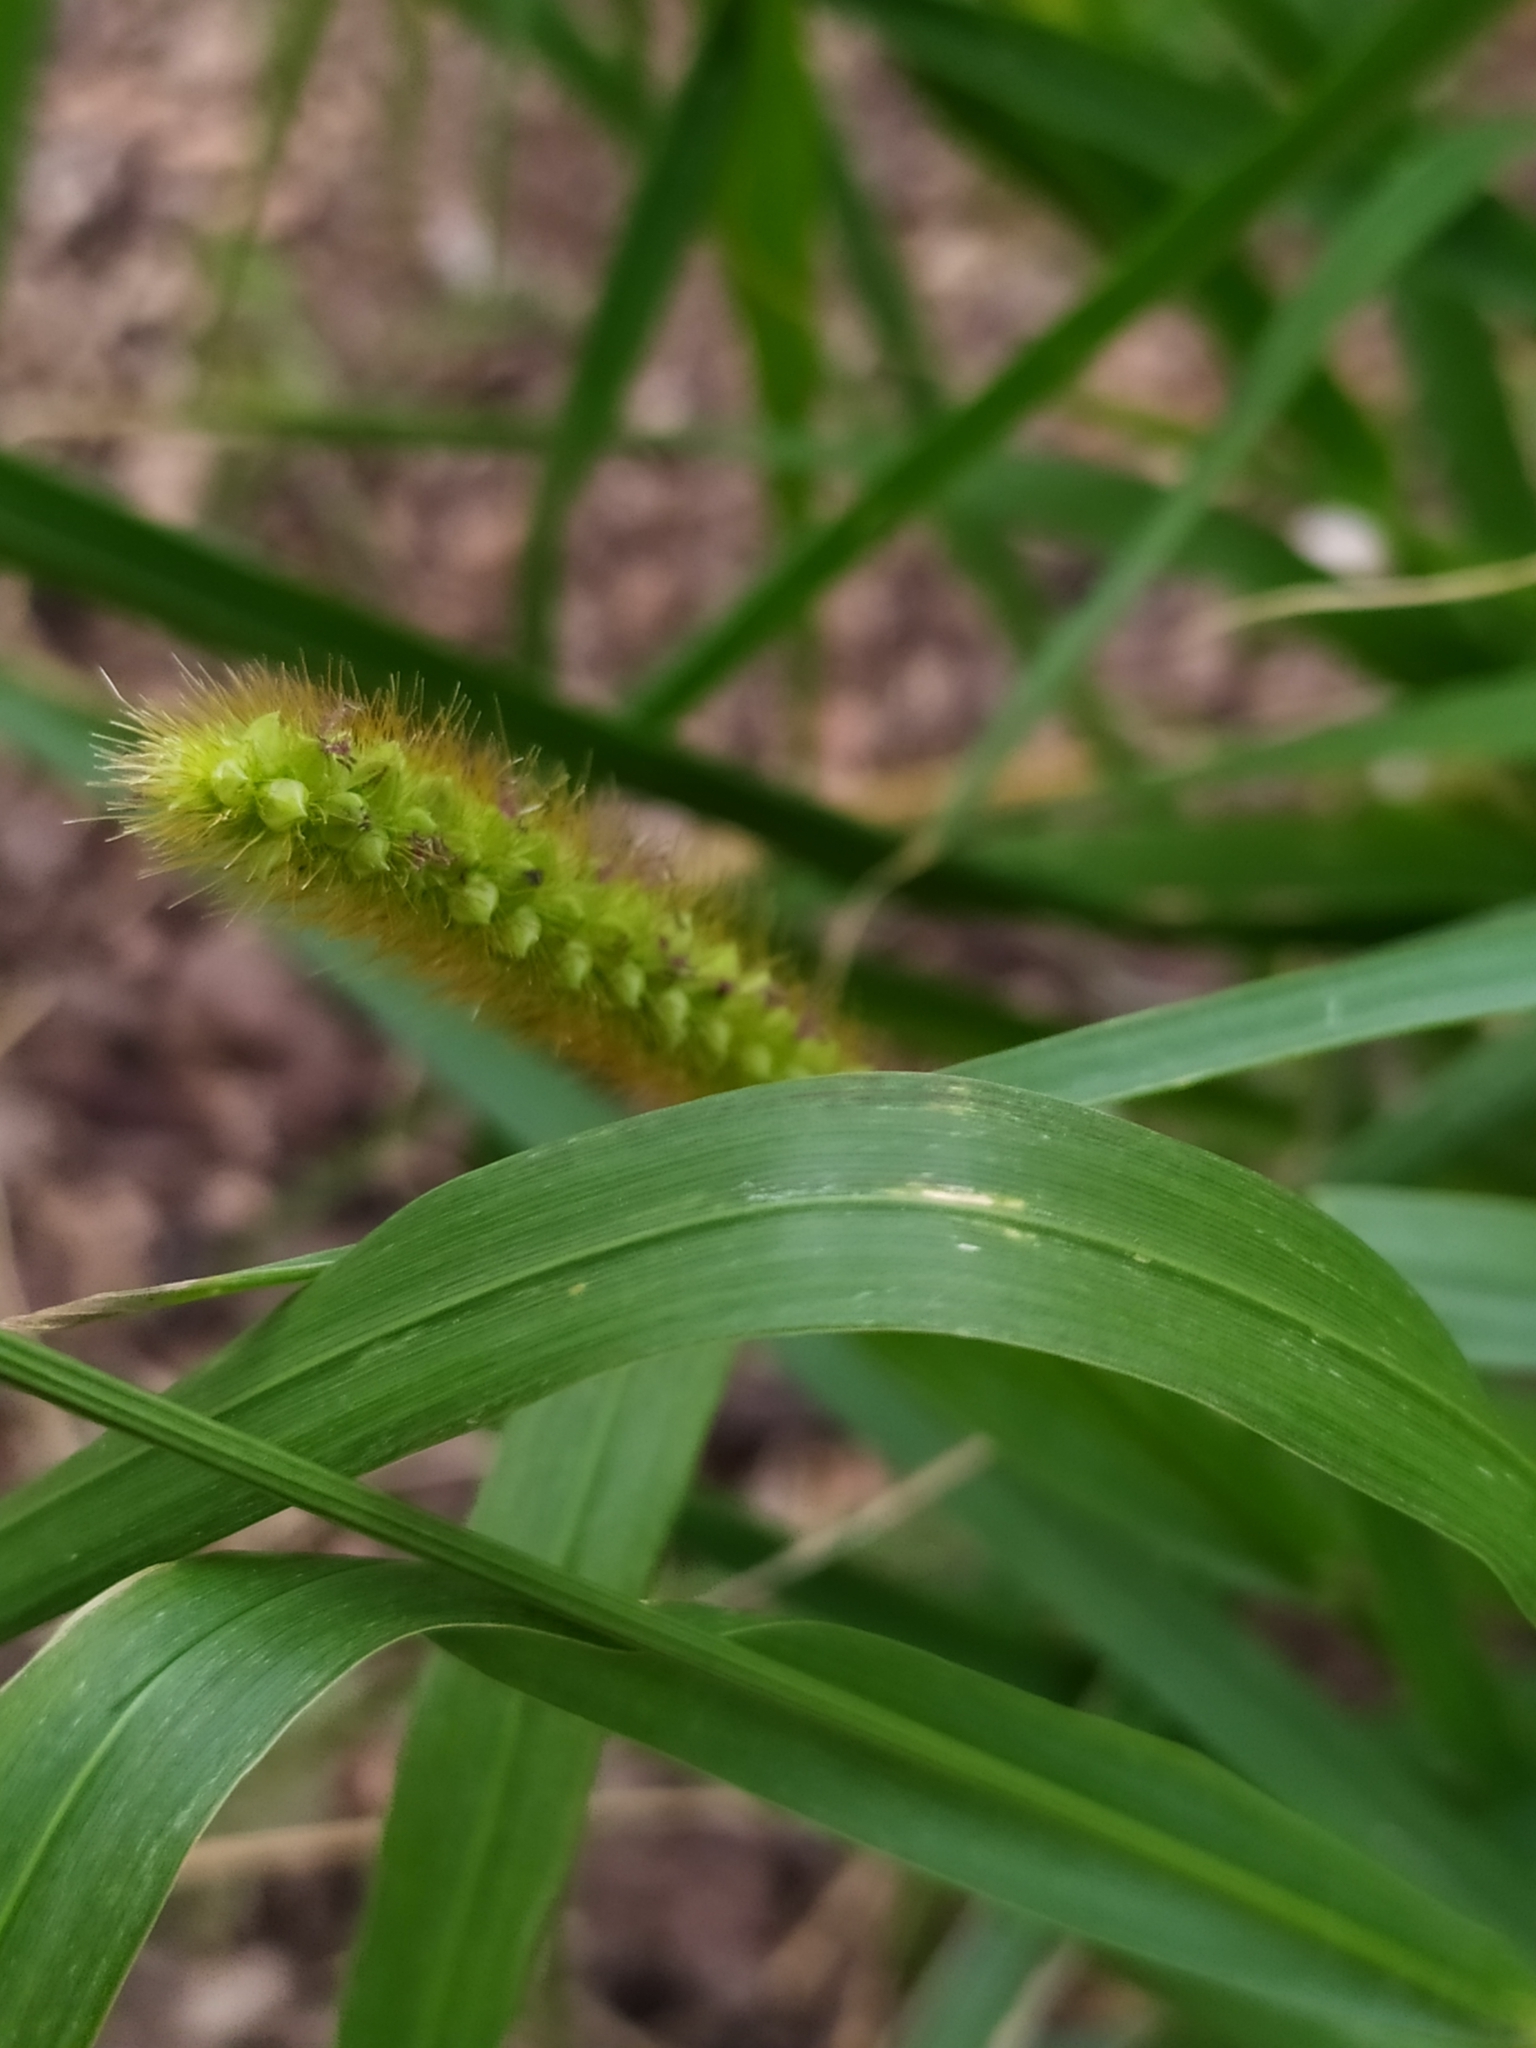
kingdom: Plantae
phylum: Tracheophyta
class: Liliopsida
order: Poales
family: Poaceae
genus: Setaria
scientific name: Setaria pumila
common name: Yellow bristle-grass
